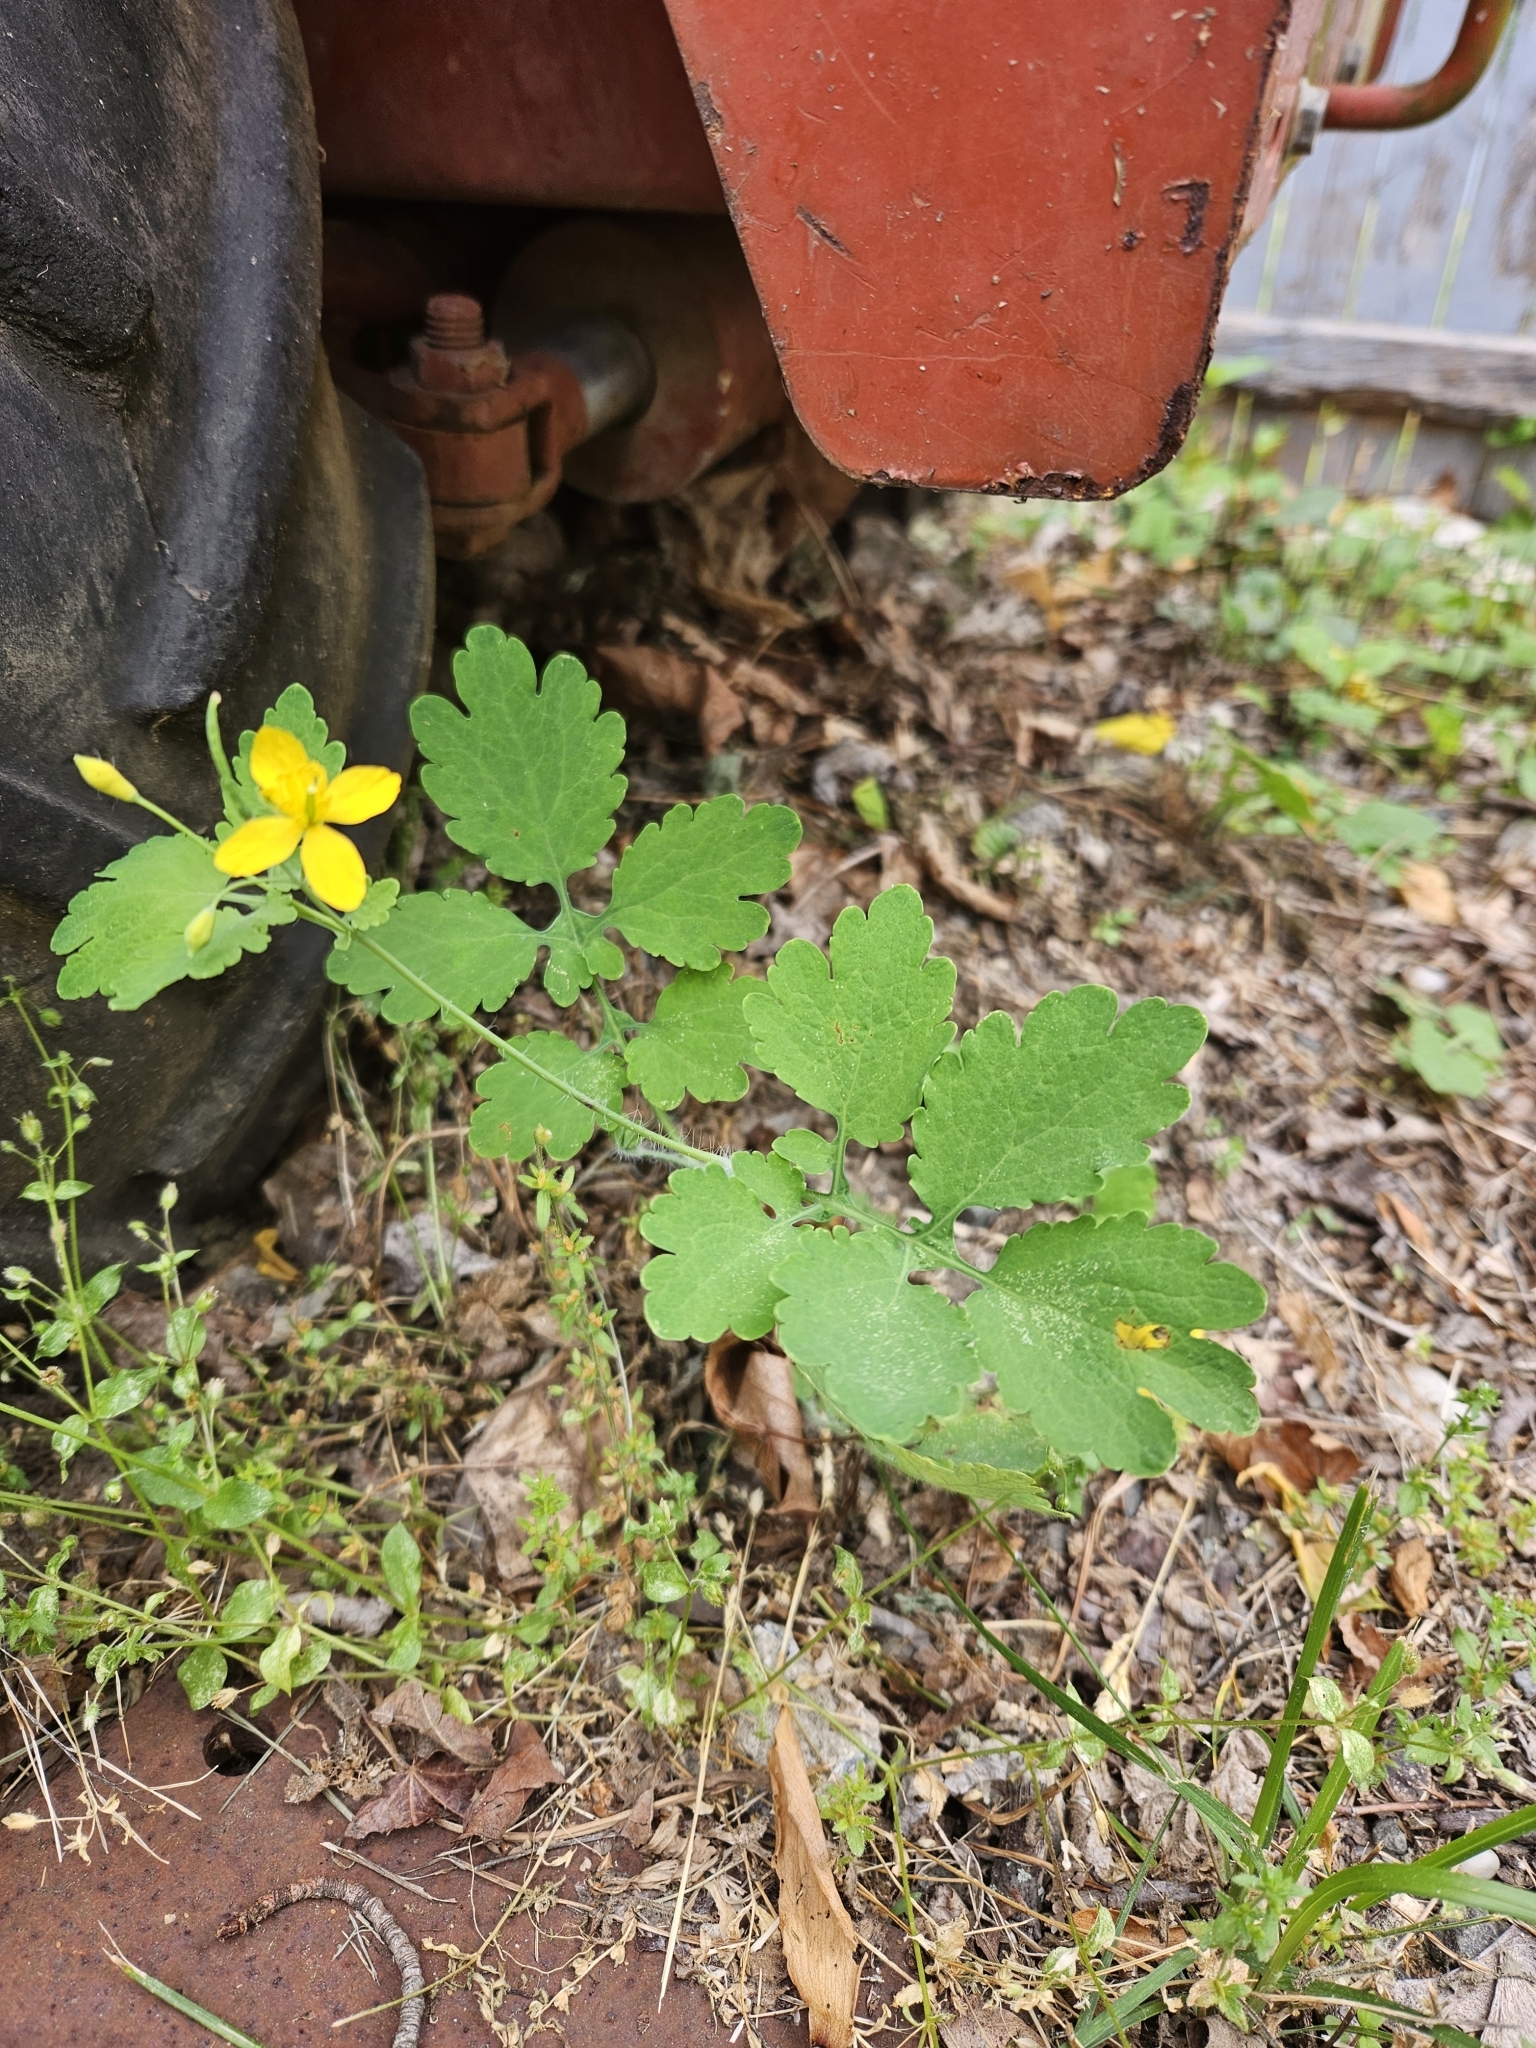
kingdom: Plantae
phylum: Tracheophyta
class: Magnoliopsida
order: Ranunculales
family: Papaveraceae
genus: Chelidonium
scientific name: Chelidonium majus
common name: Greater celandine
